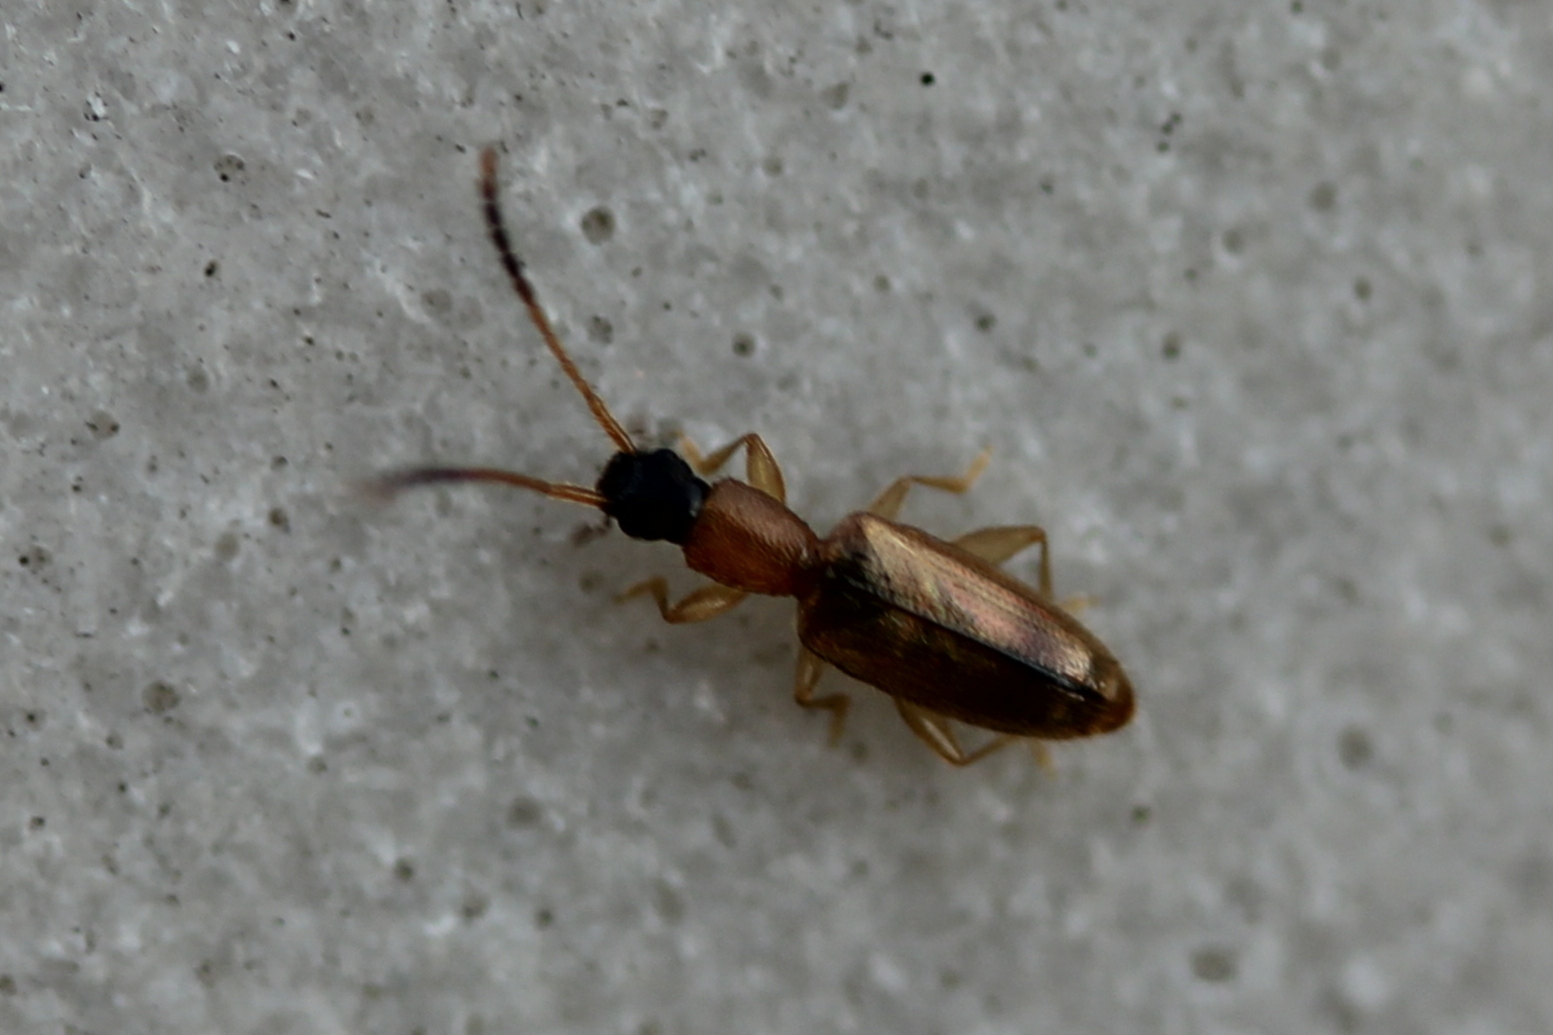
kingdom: Animalia
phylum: Arthropoda
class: Insecta
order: Coleoptera
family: Silvanidae
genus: Telephanus
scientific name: Telephanus velox
